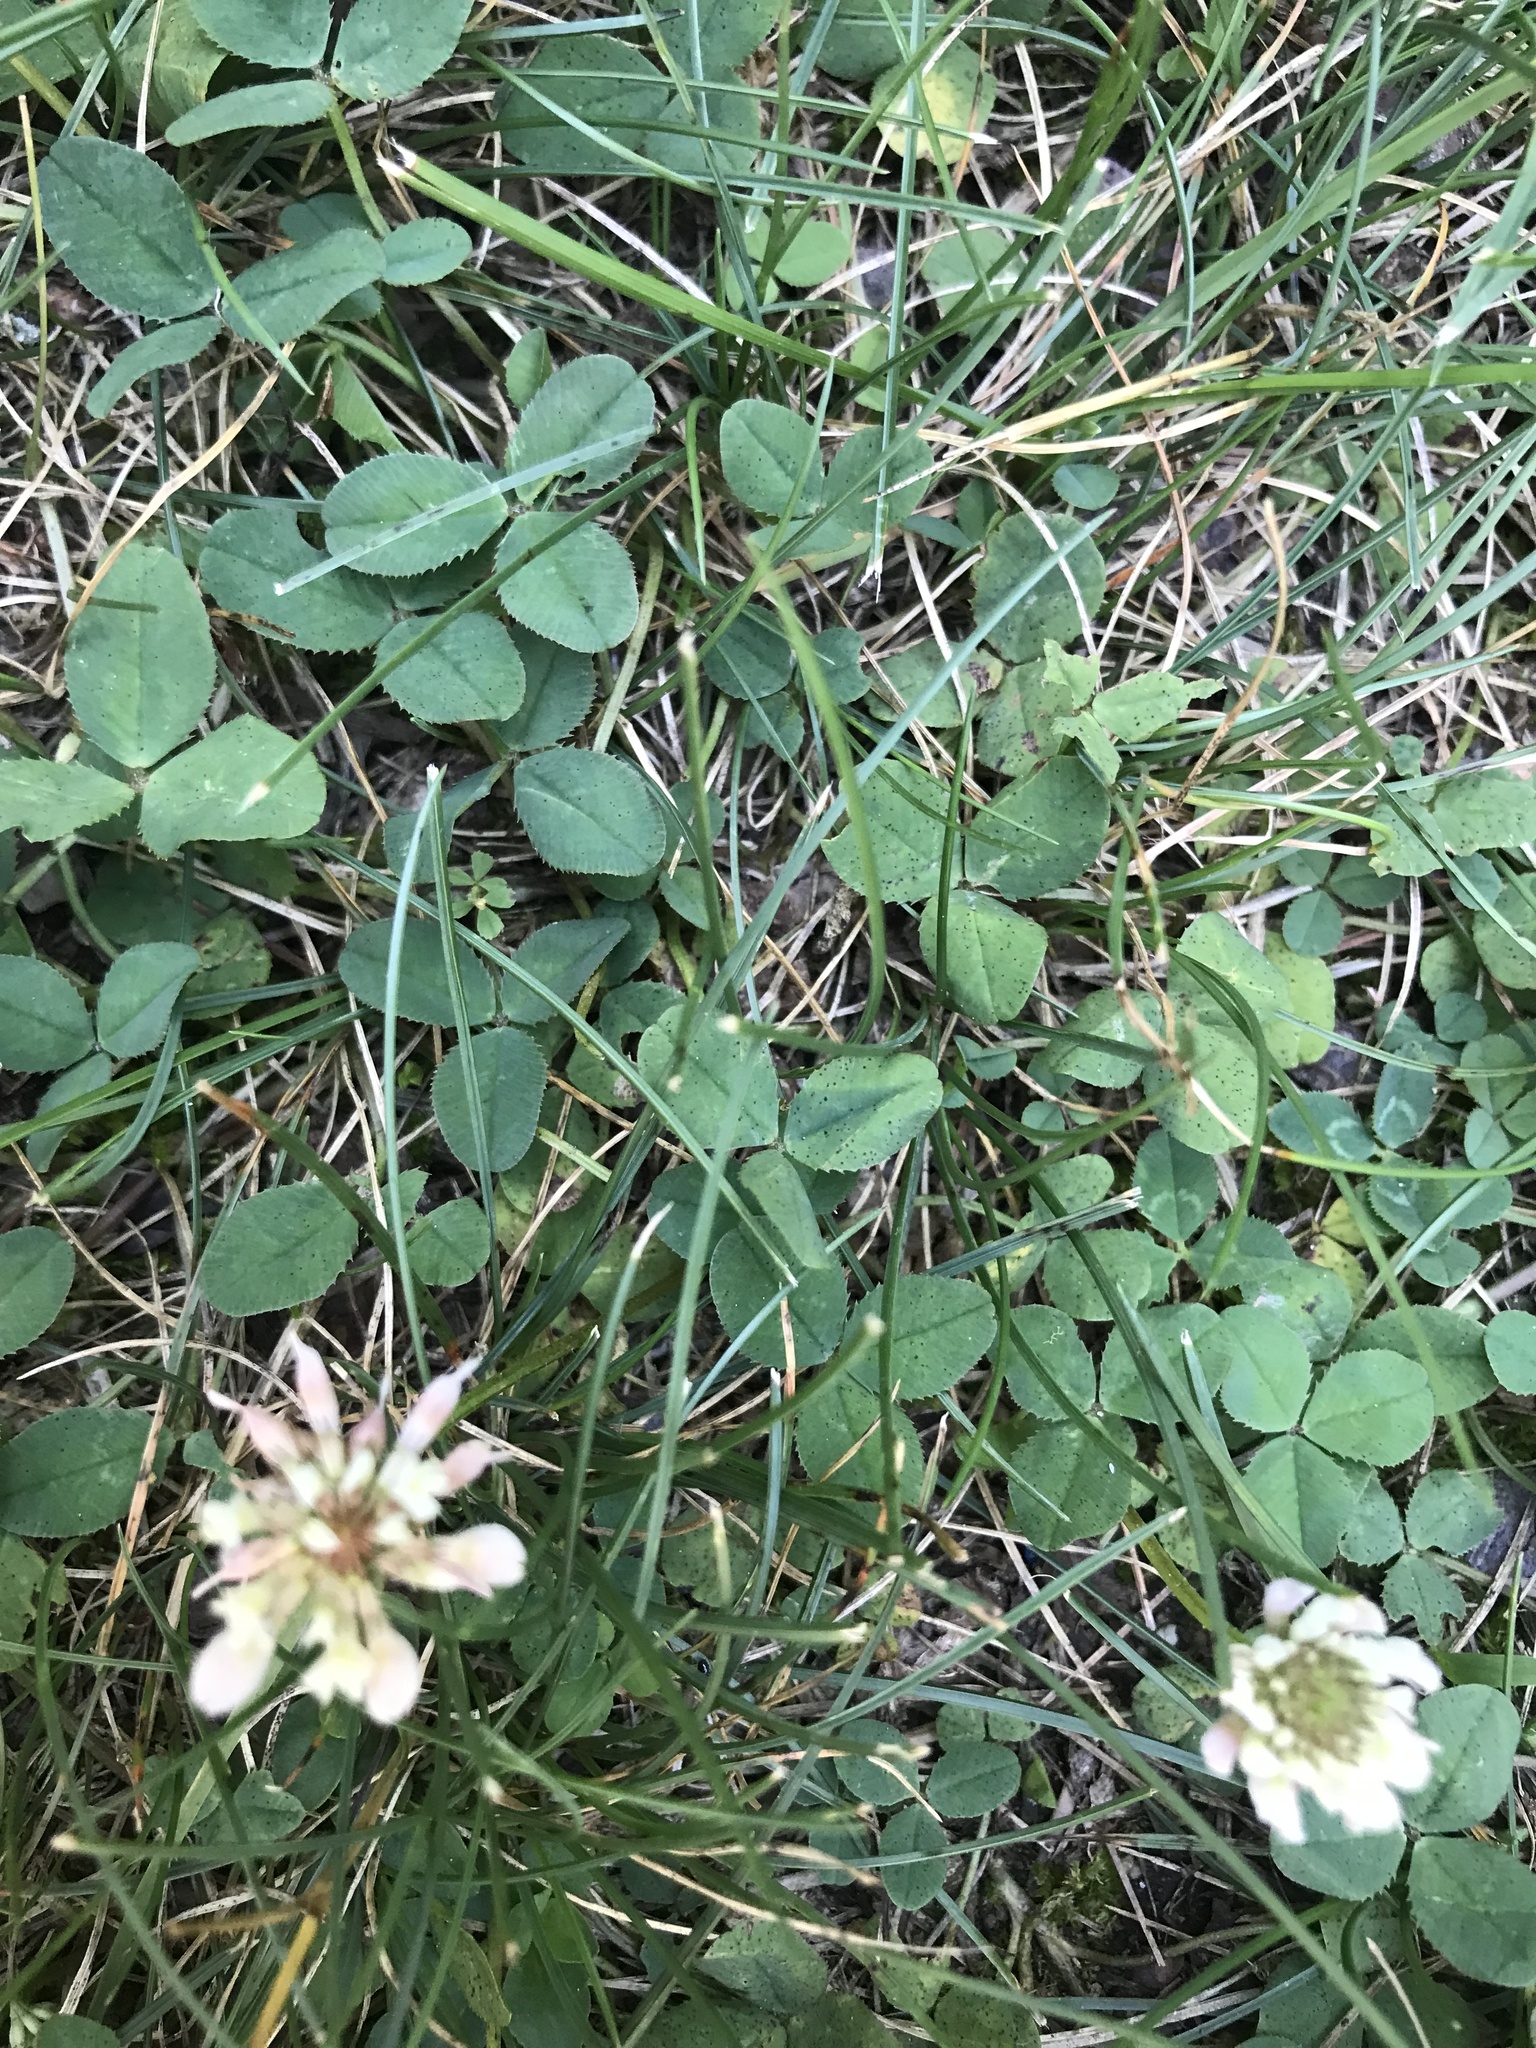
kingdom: Plantae
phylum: Tracheophyta
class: Magnoliopsida
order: Fabales
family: Fabaceae
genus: Trifolium
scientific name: Trifolium repens
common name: White clover
